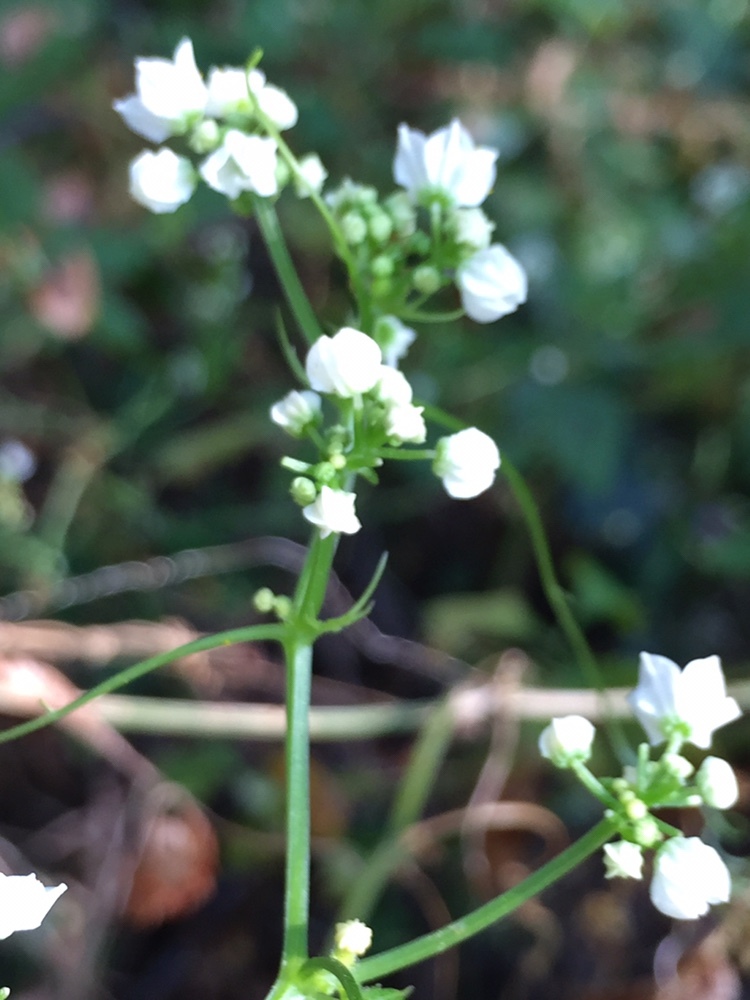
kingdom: Plantae
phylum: Tracheophyta
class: Magnoliopsida
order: Cucurbitales
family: Cucurbitaceae
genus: Cyclanthera
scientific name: Cyclanthera naudiniana
